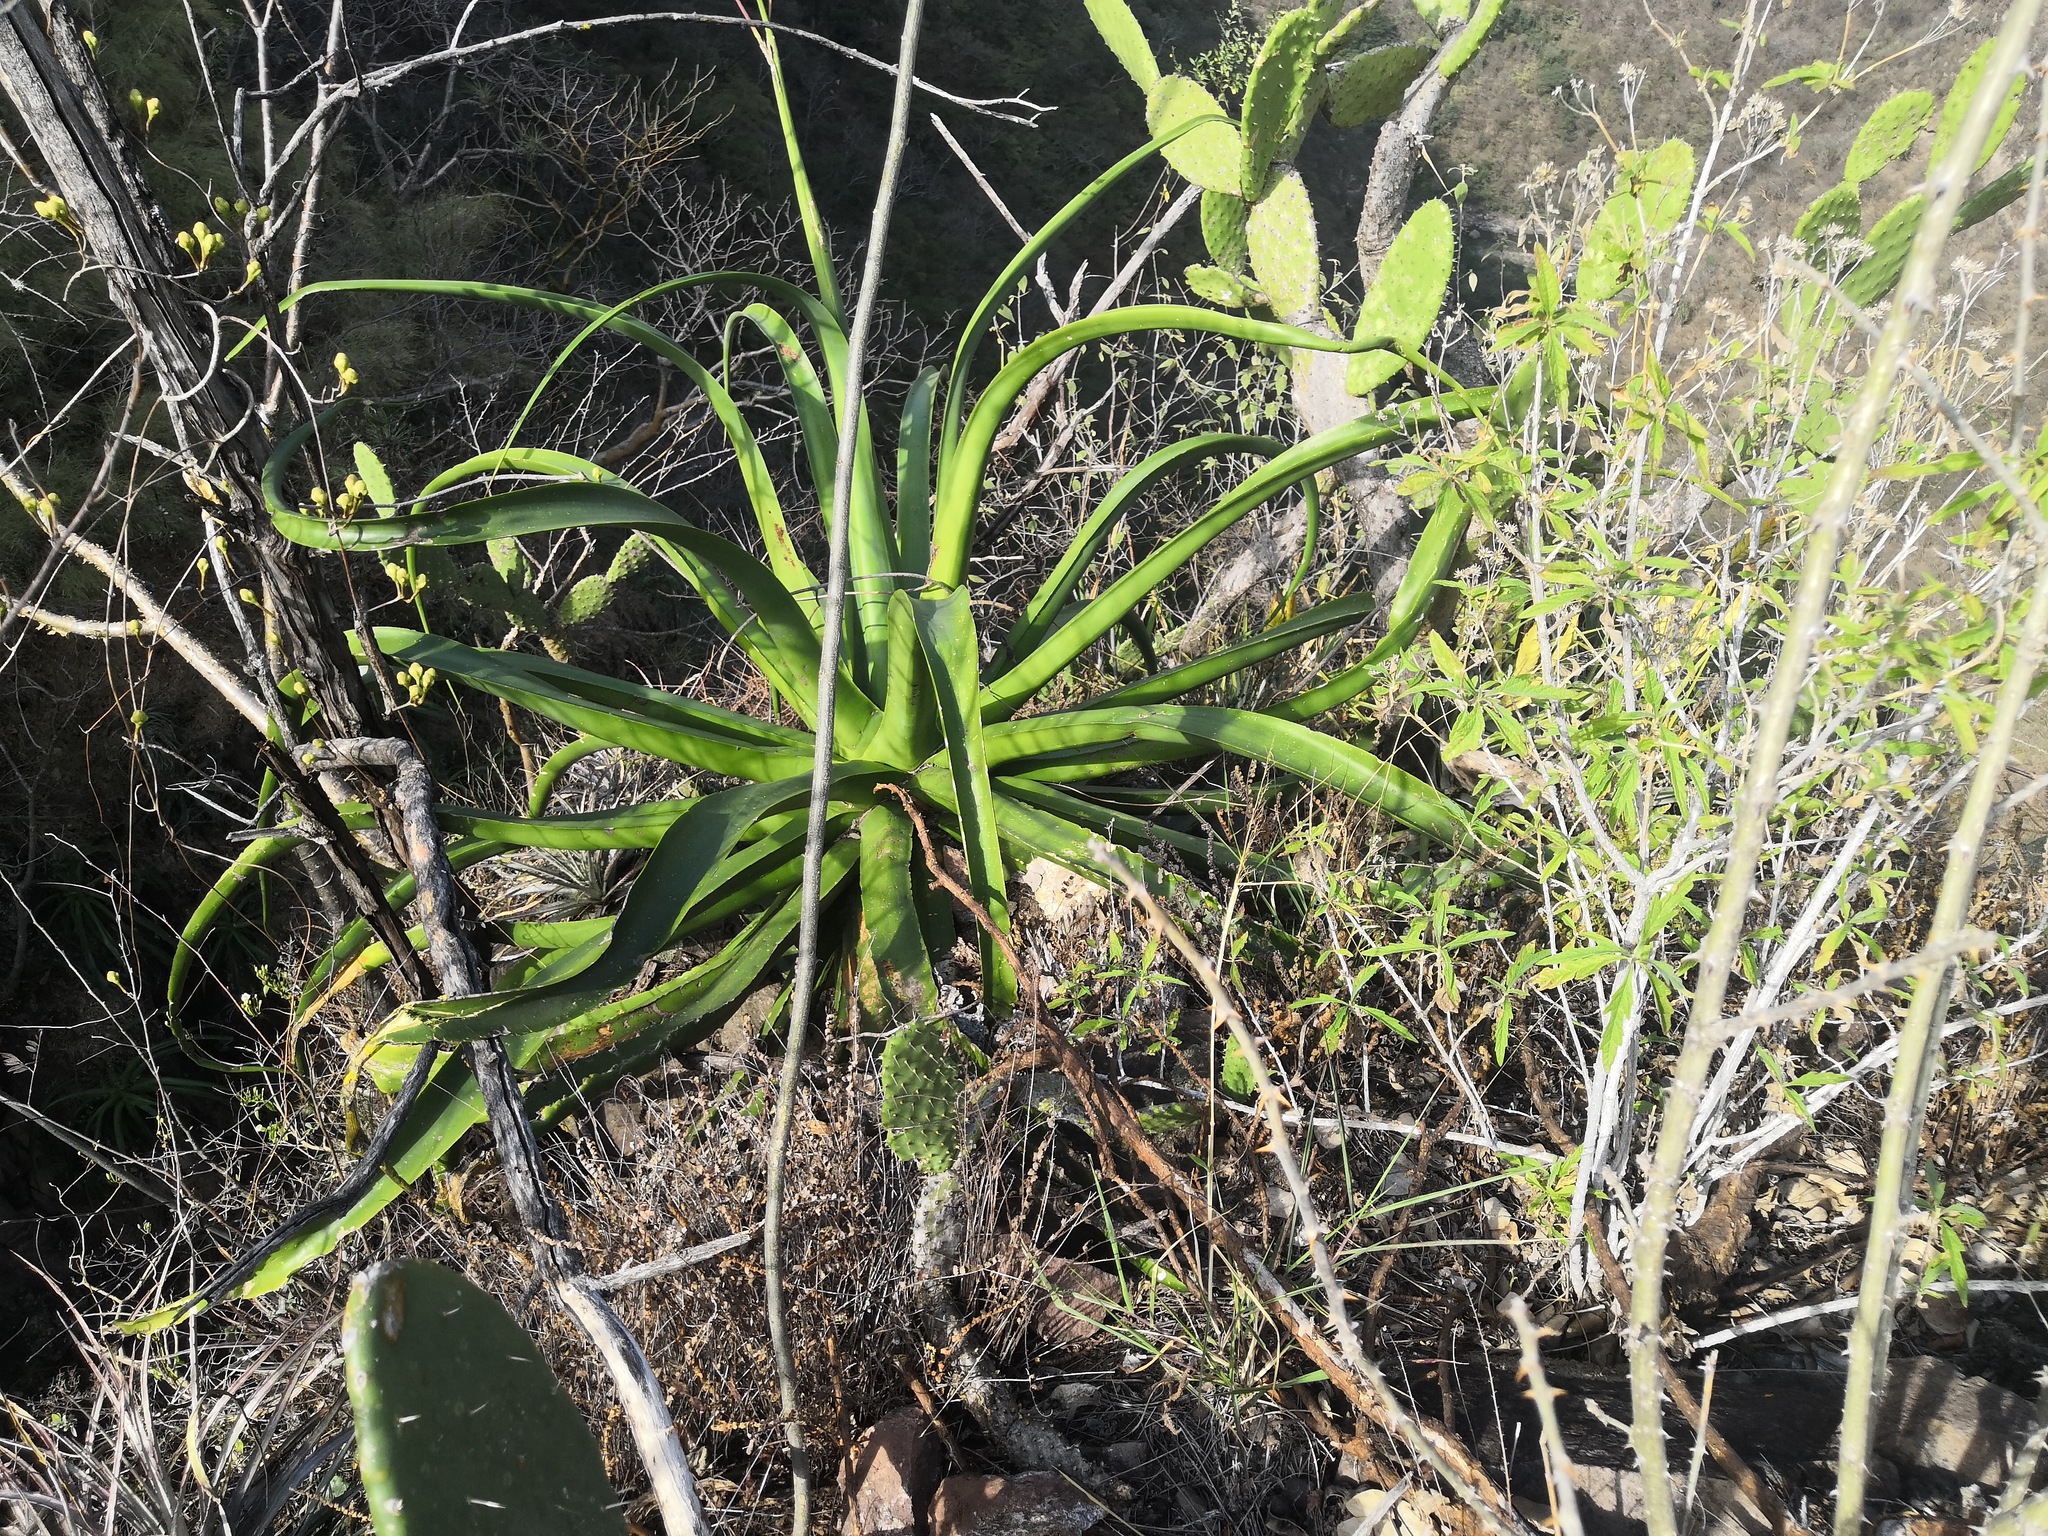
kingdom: Plantae
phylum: Tracheophyta
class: Liliopsida
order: Asparagales
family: Asparagaceae
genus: Agave
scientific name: Agave vilmoriniana
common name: Octopus plant
